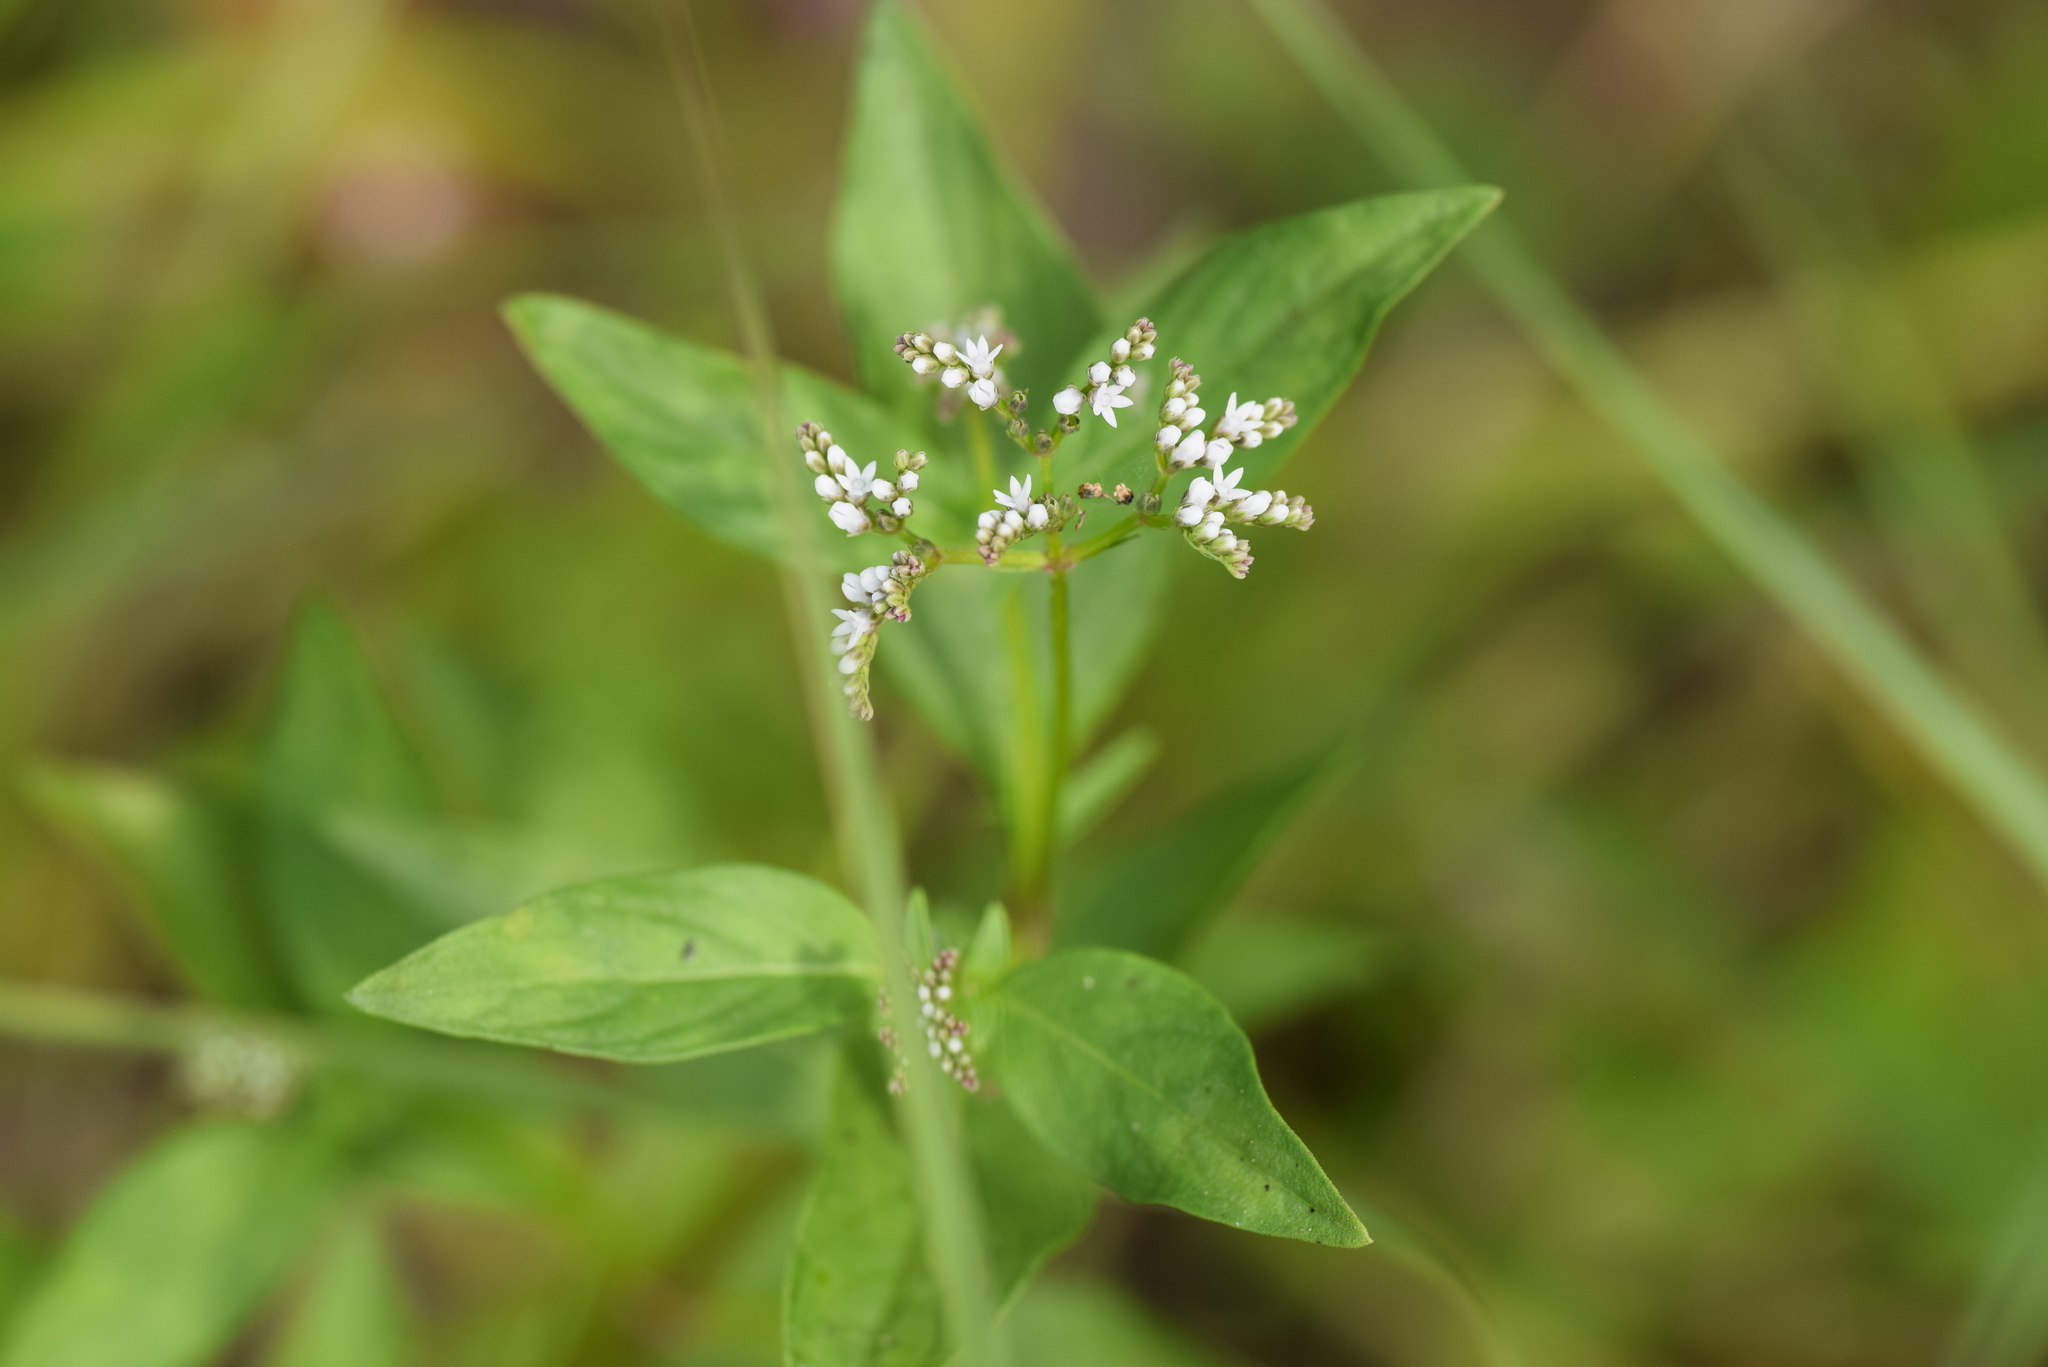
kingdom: Plantae
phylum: Tracheophyta
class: Magnoliopsida
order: Gentianales
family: Loganiaceae
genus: Mitreola
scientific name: Mitreola petiolata
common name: Lax hornpod
